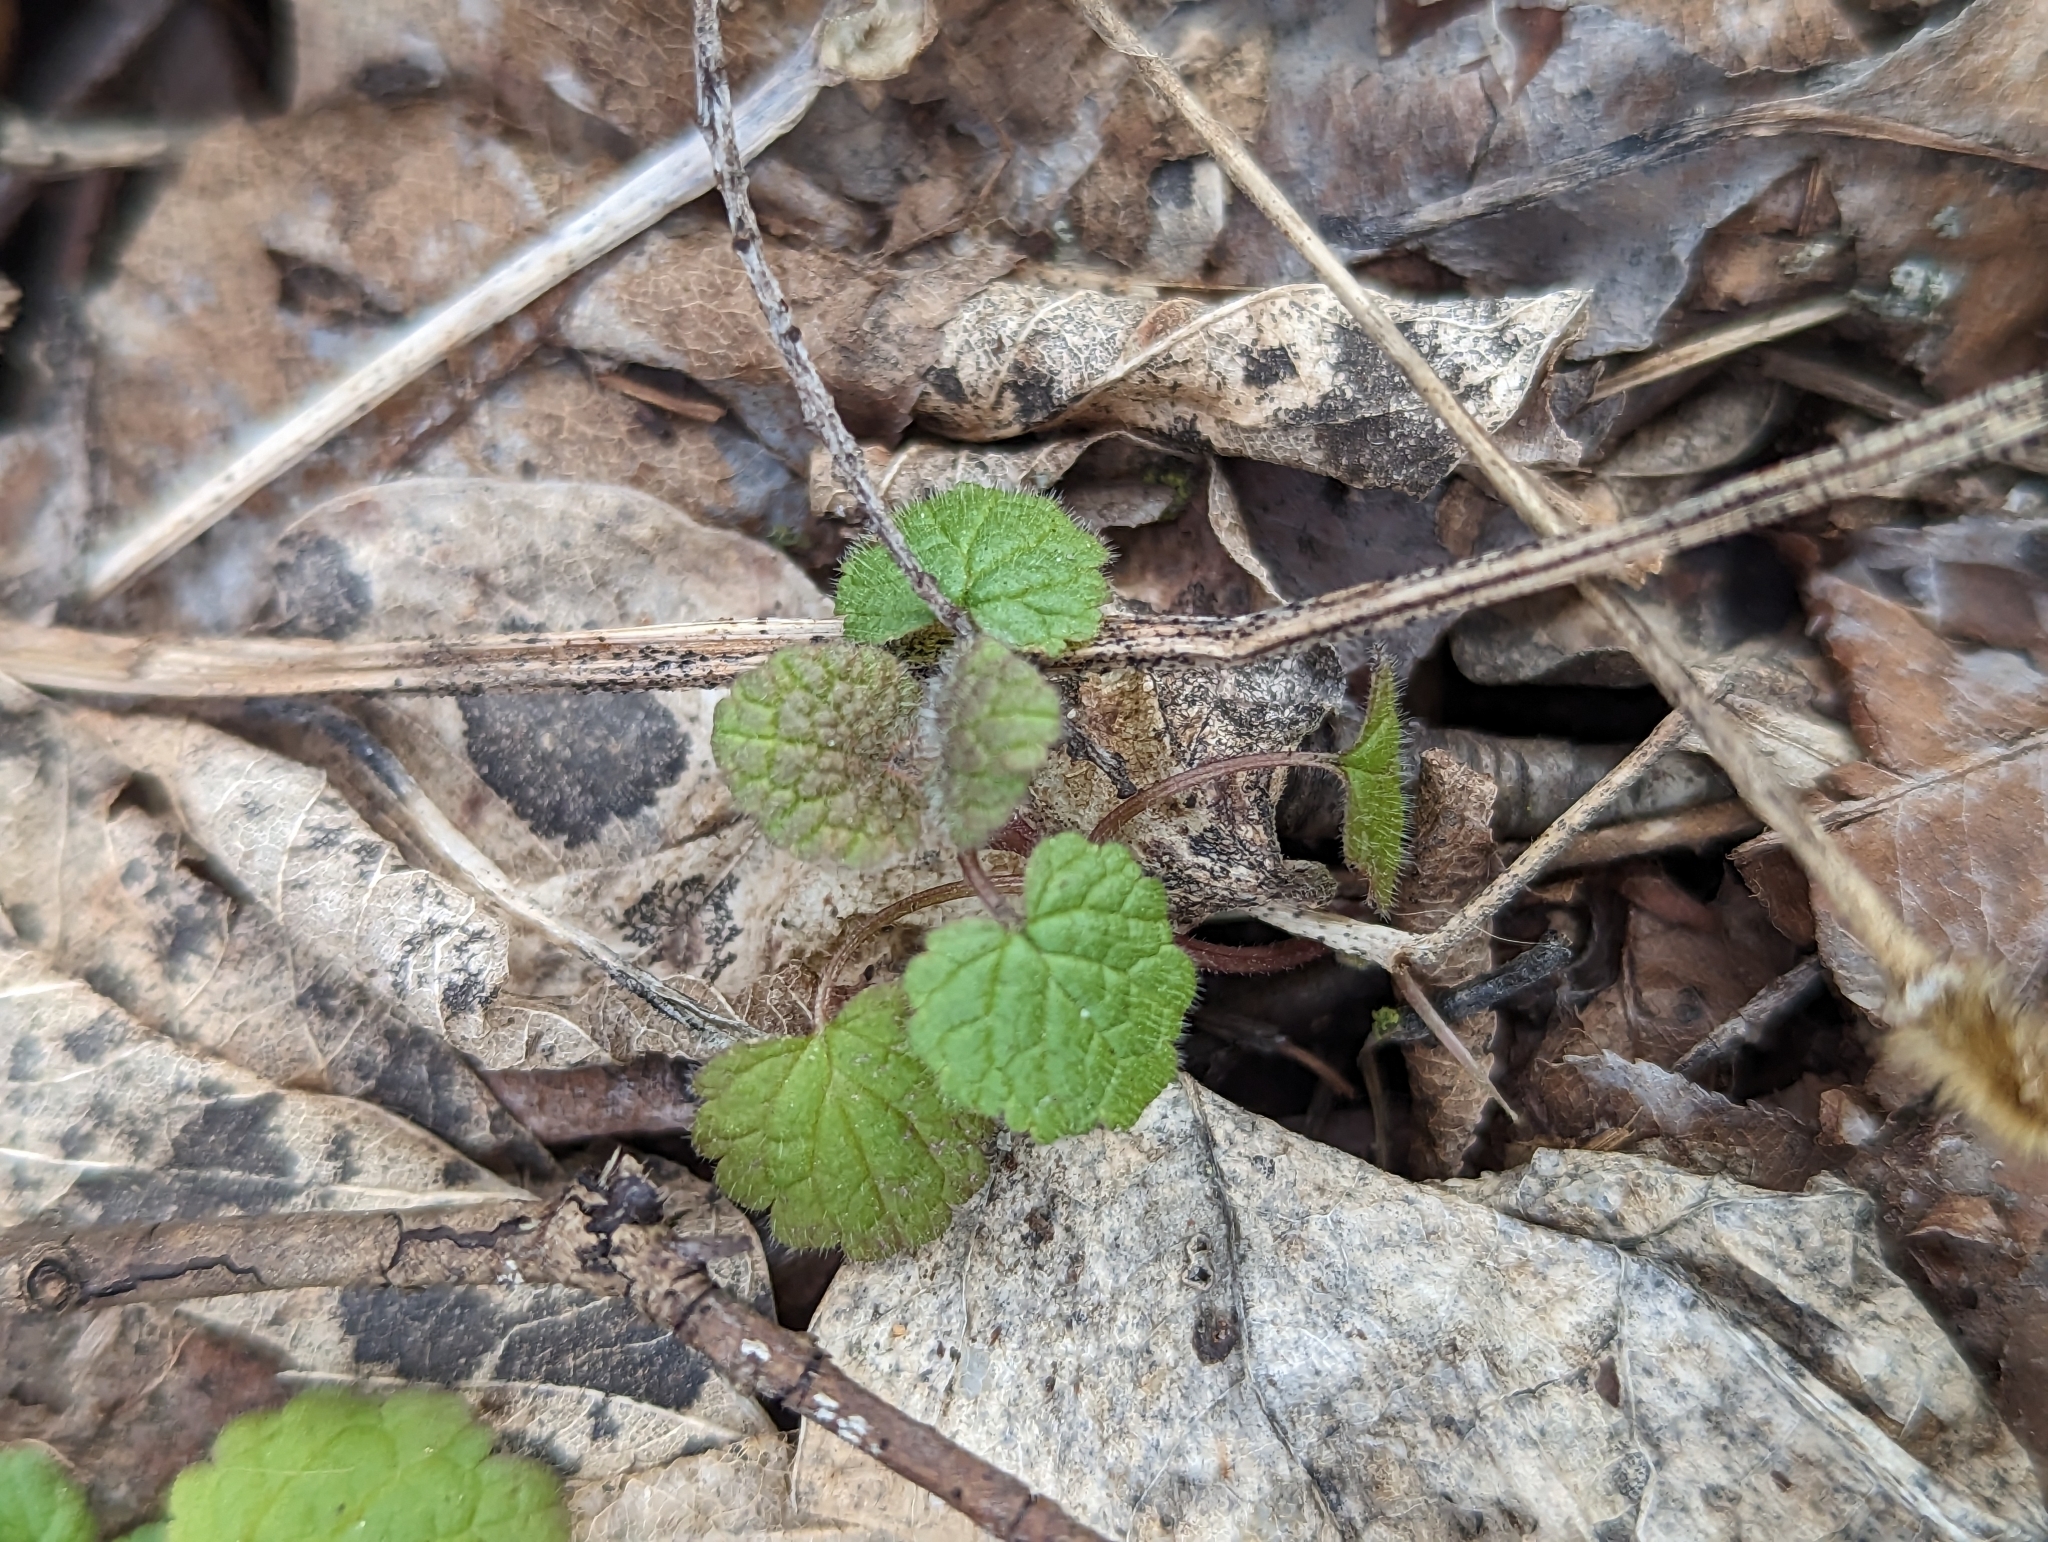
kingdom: Plantae
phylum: Tracheophyta
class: Magnoliopsida
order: Lamiales
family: Lamiaceae
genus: Lamium
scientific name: Lamium purpureum
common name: Red dead-nettle
